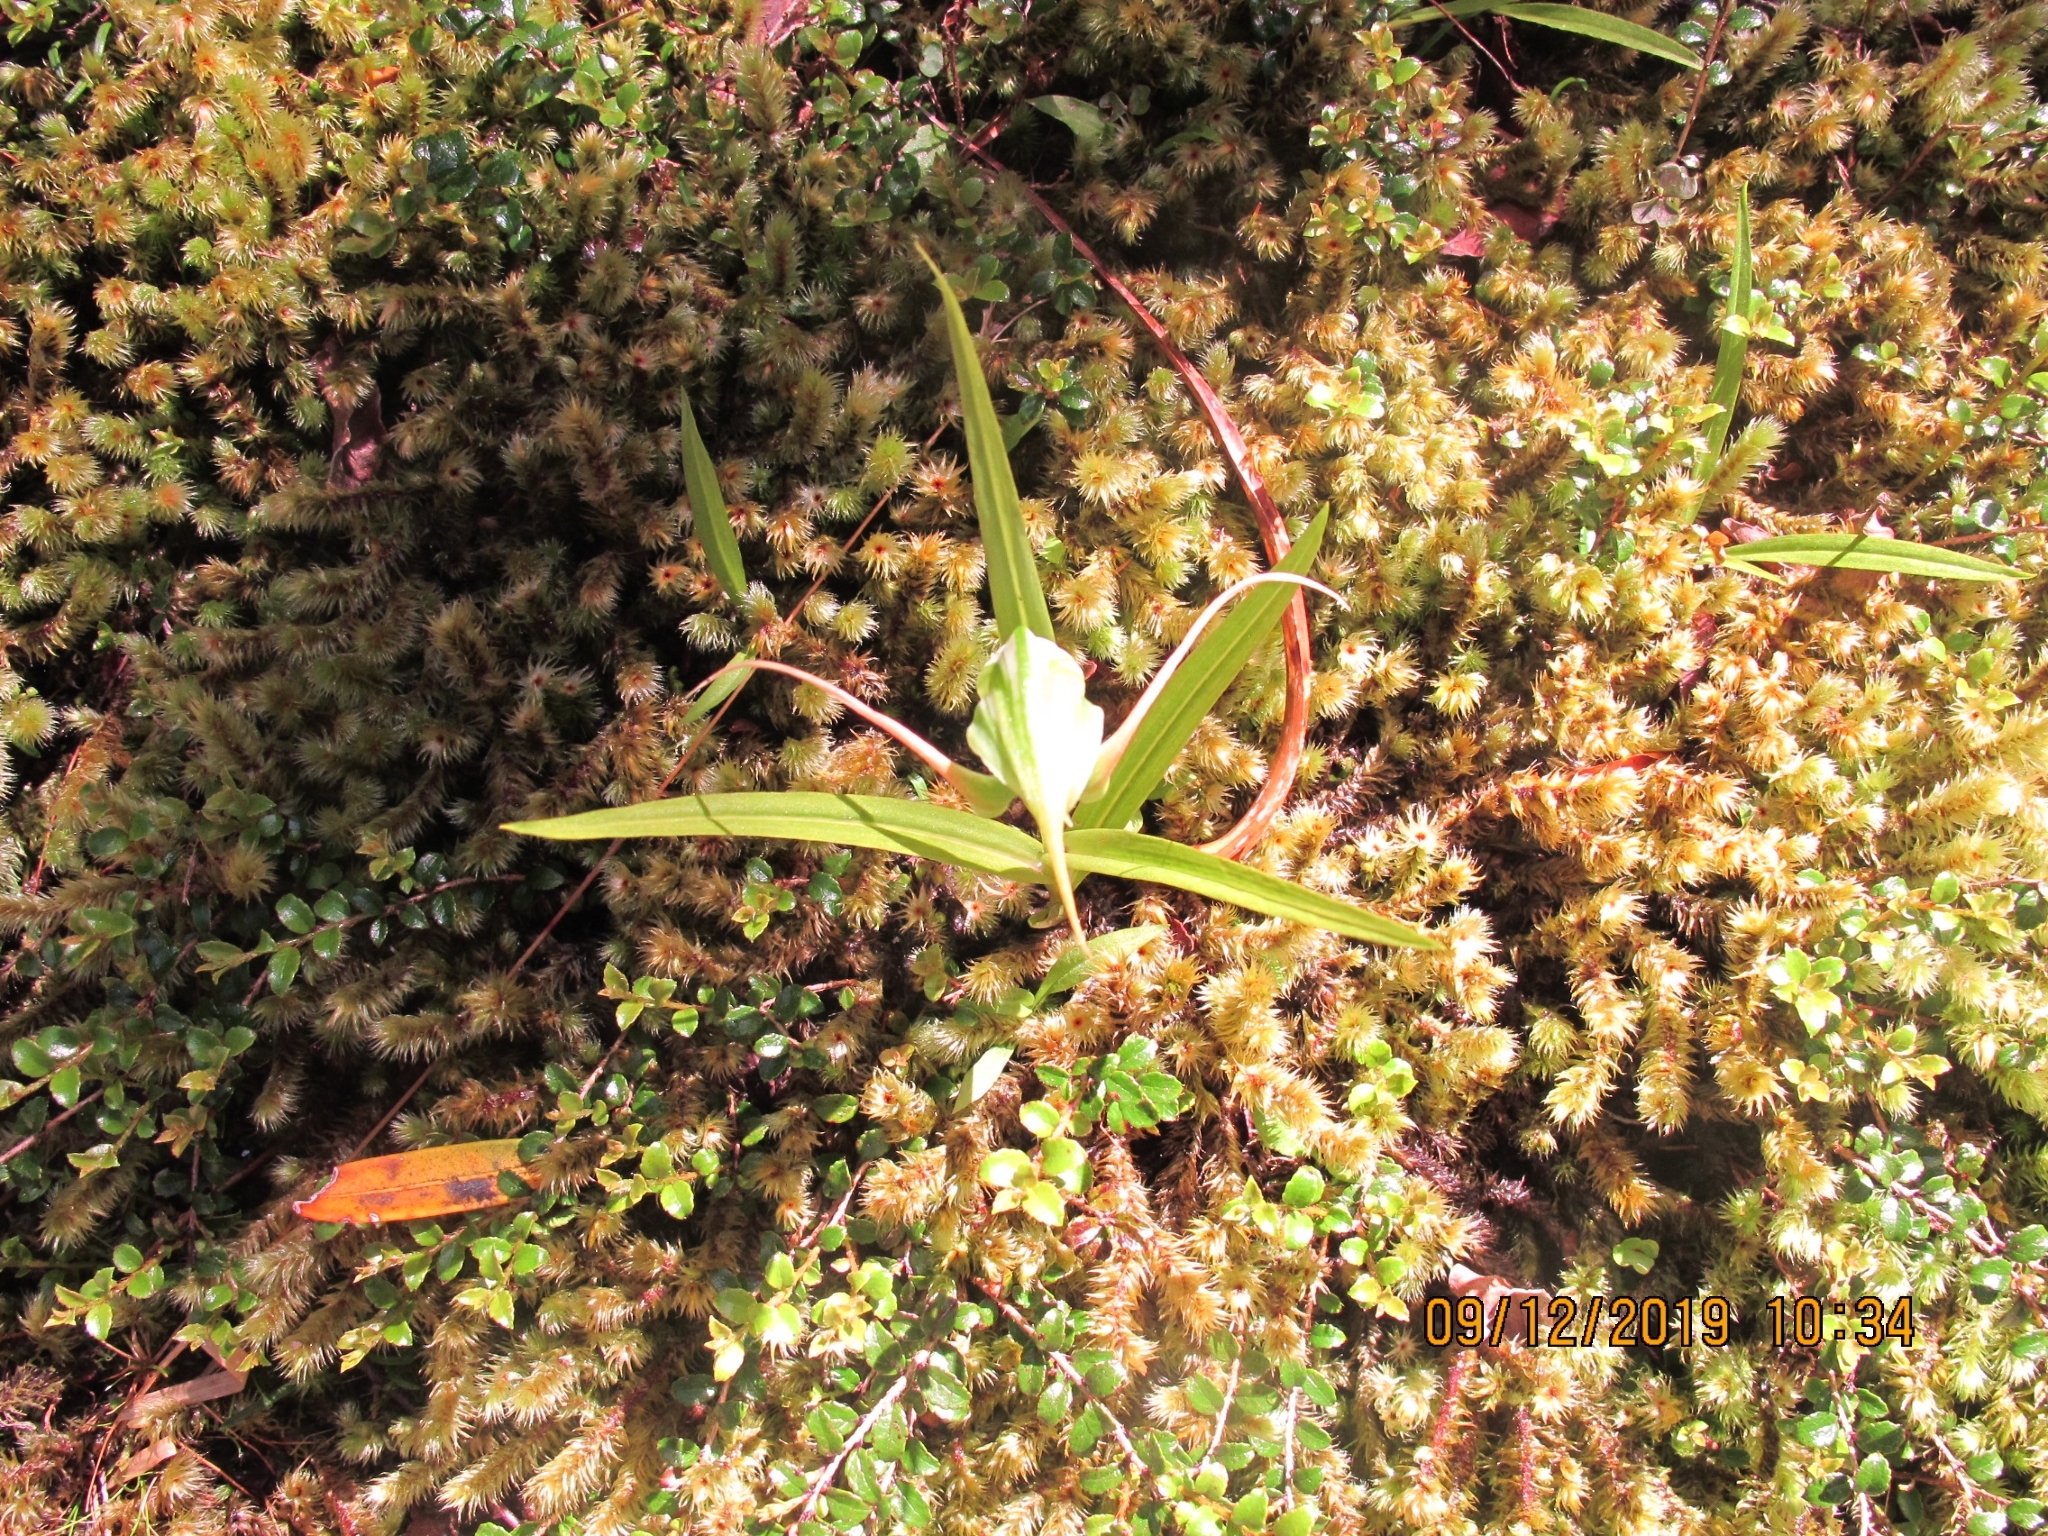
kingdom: Plantae
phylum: Tracheophyta
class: Liliopsida
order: Asparagales
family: Orchidaceae
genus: Pterostylis
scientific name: Pterostylis banksii
